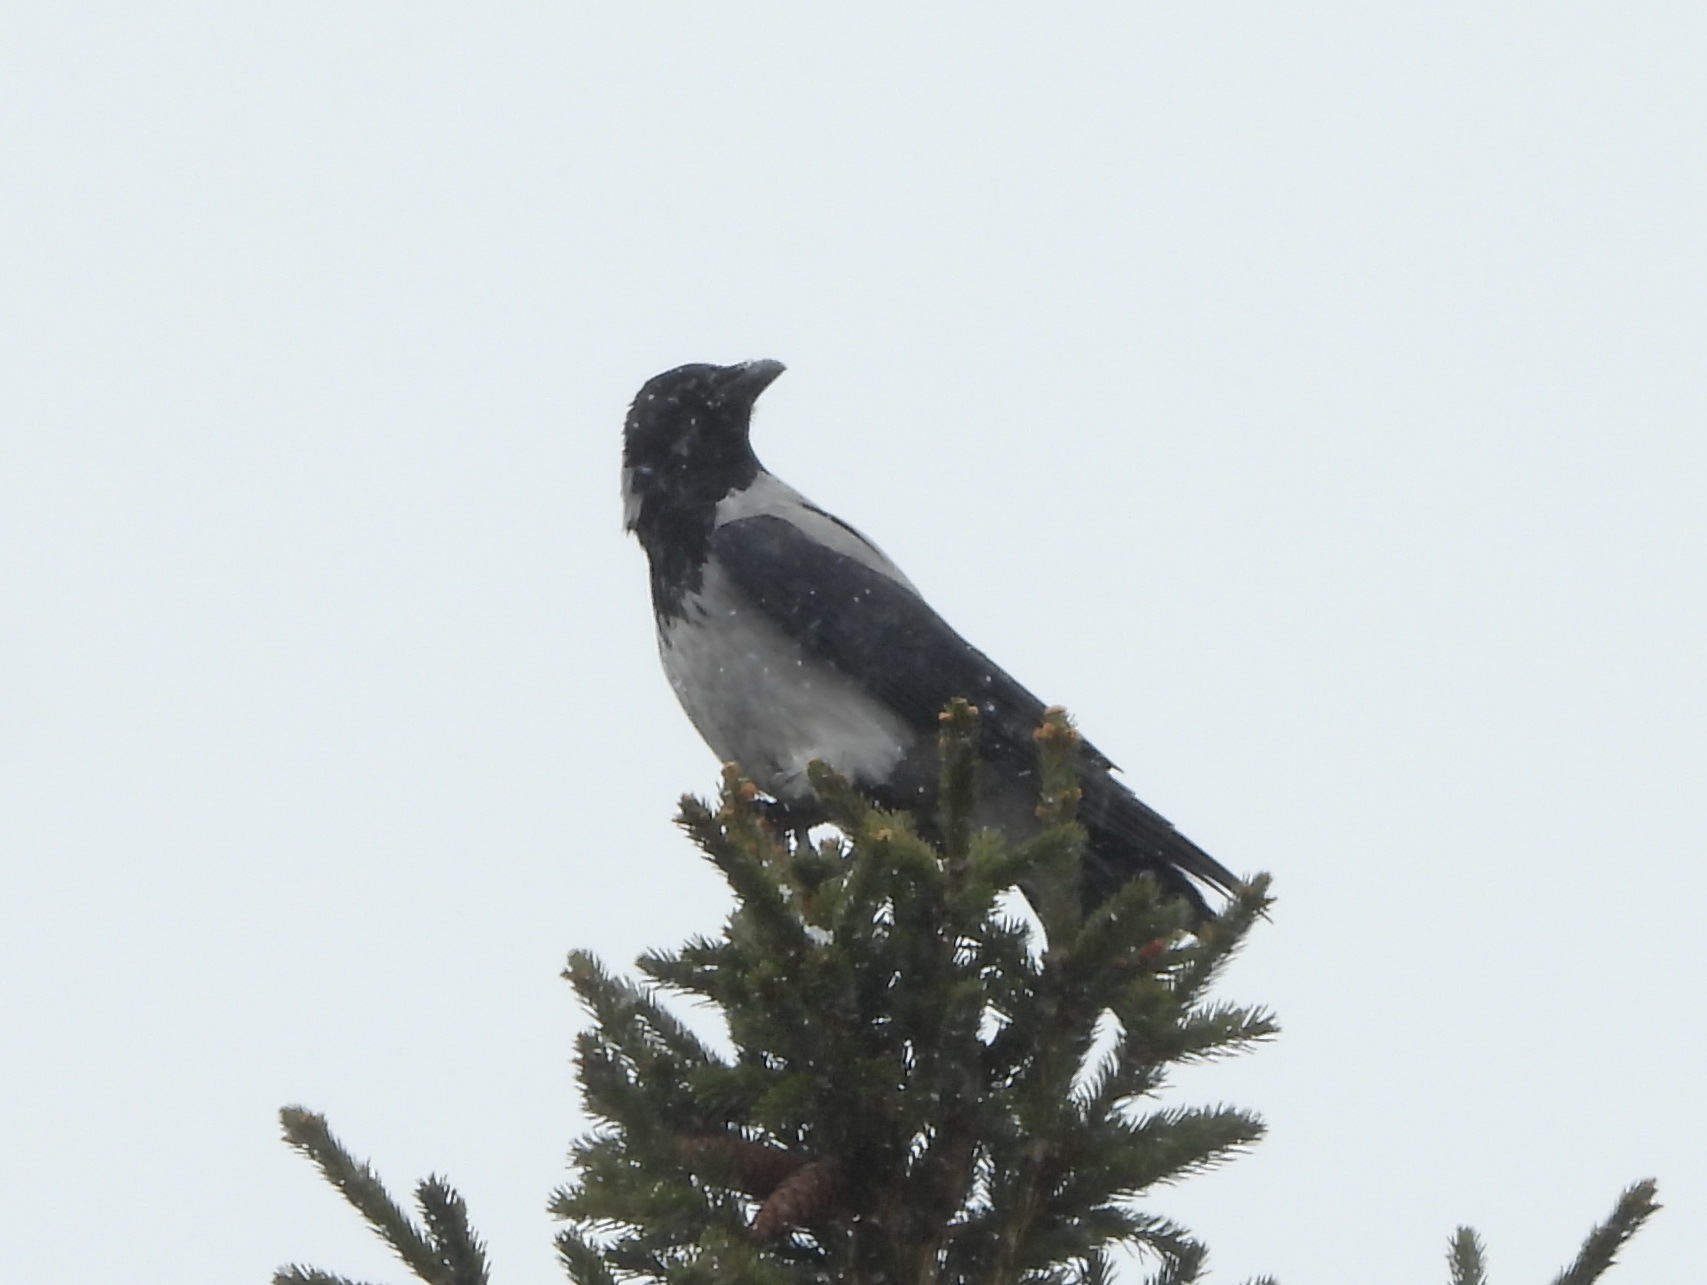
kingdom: Animalia
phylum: Chordata
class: Aves
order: Passeriformes
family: Corvidae
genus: Corvus
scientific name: Corvus cornix
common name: Hooded crow
